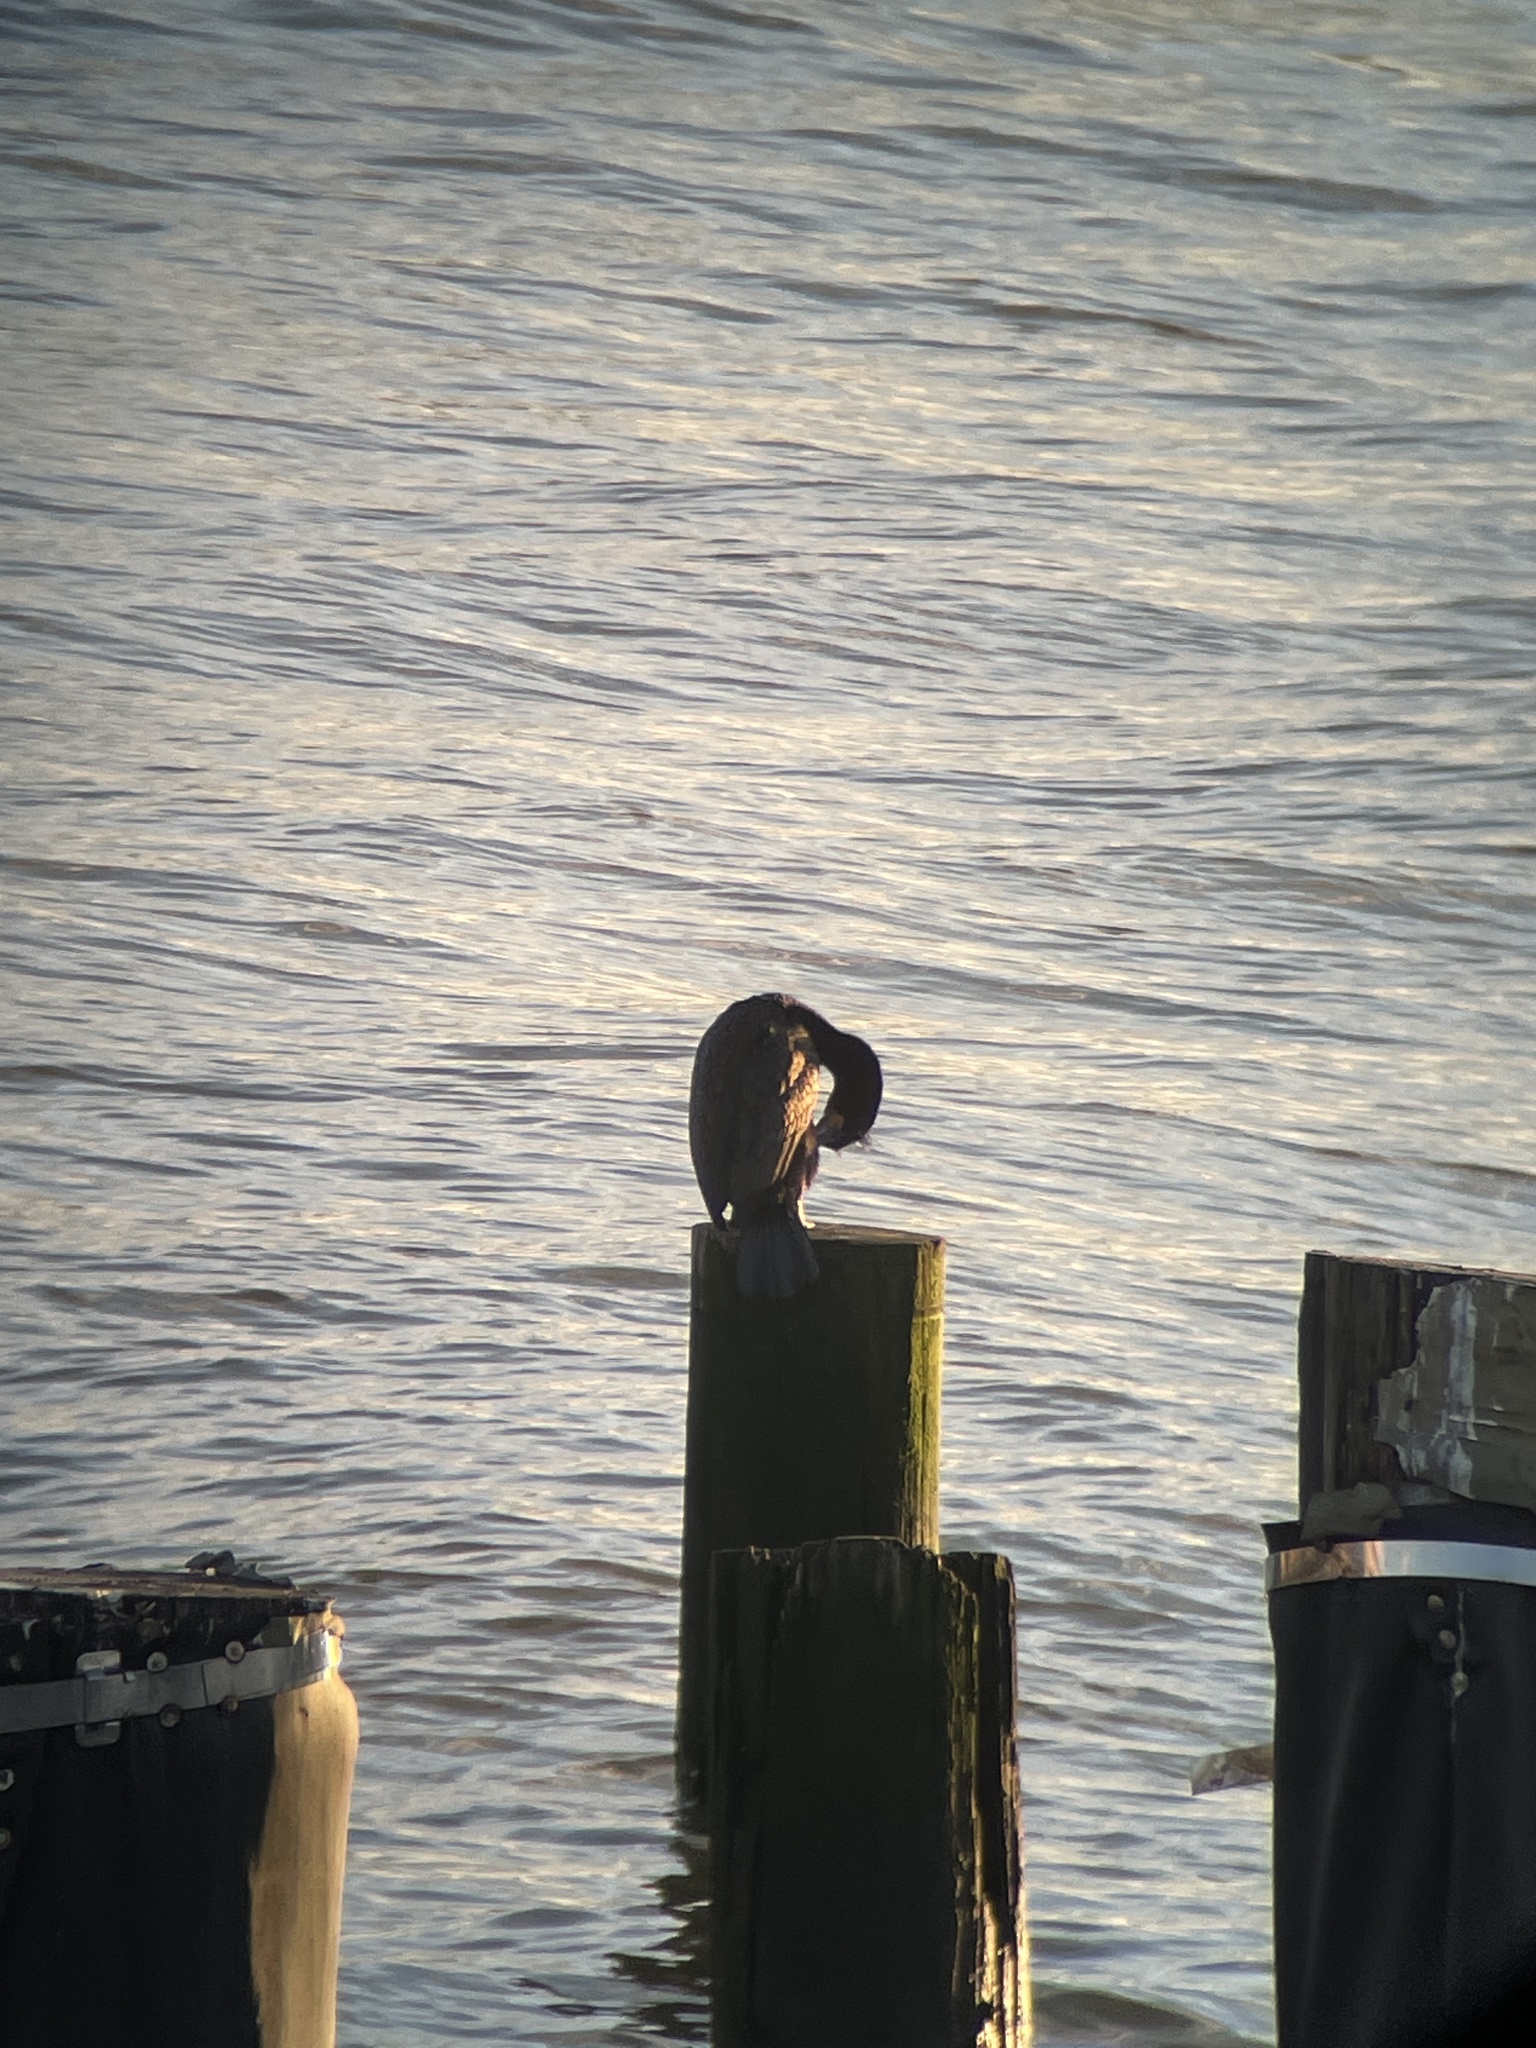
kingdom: Animalia
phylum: Chordata
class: Aves
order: Suliformes
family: Phalacrocoracidae
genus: Phalacrocorax
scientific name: Phalacrocorax auritus
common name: Double-crested cormorant
